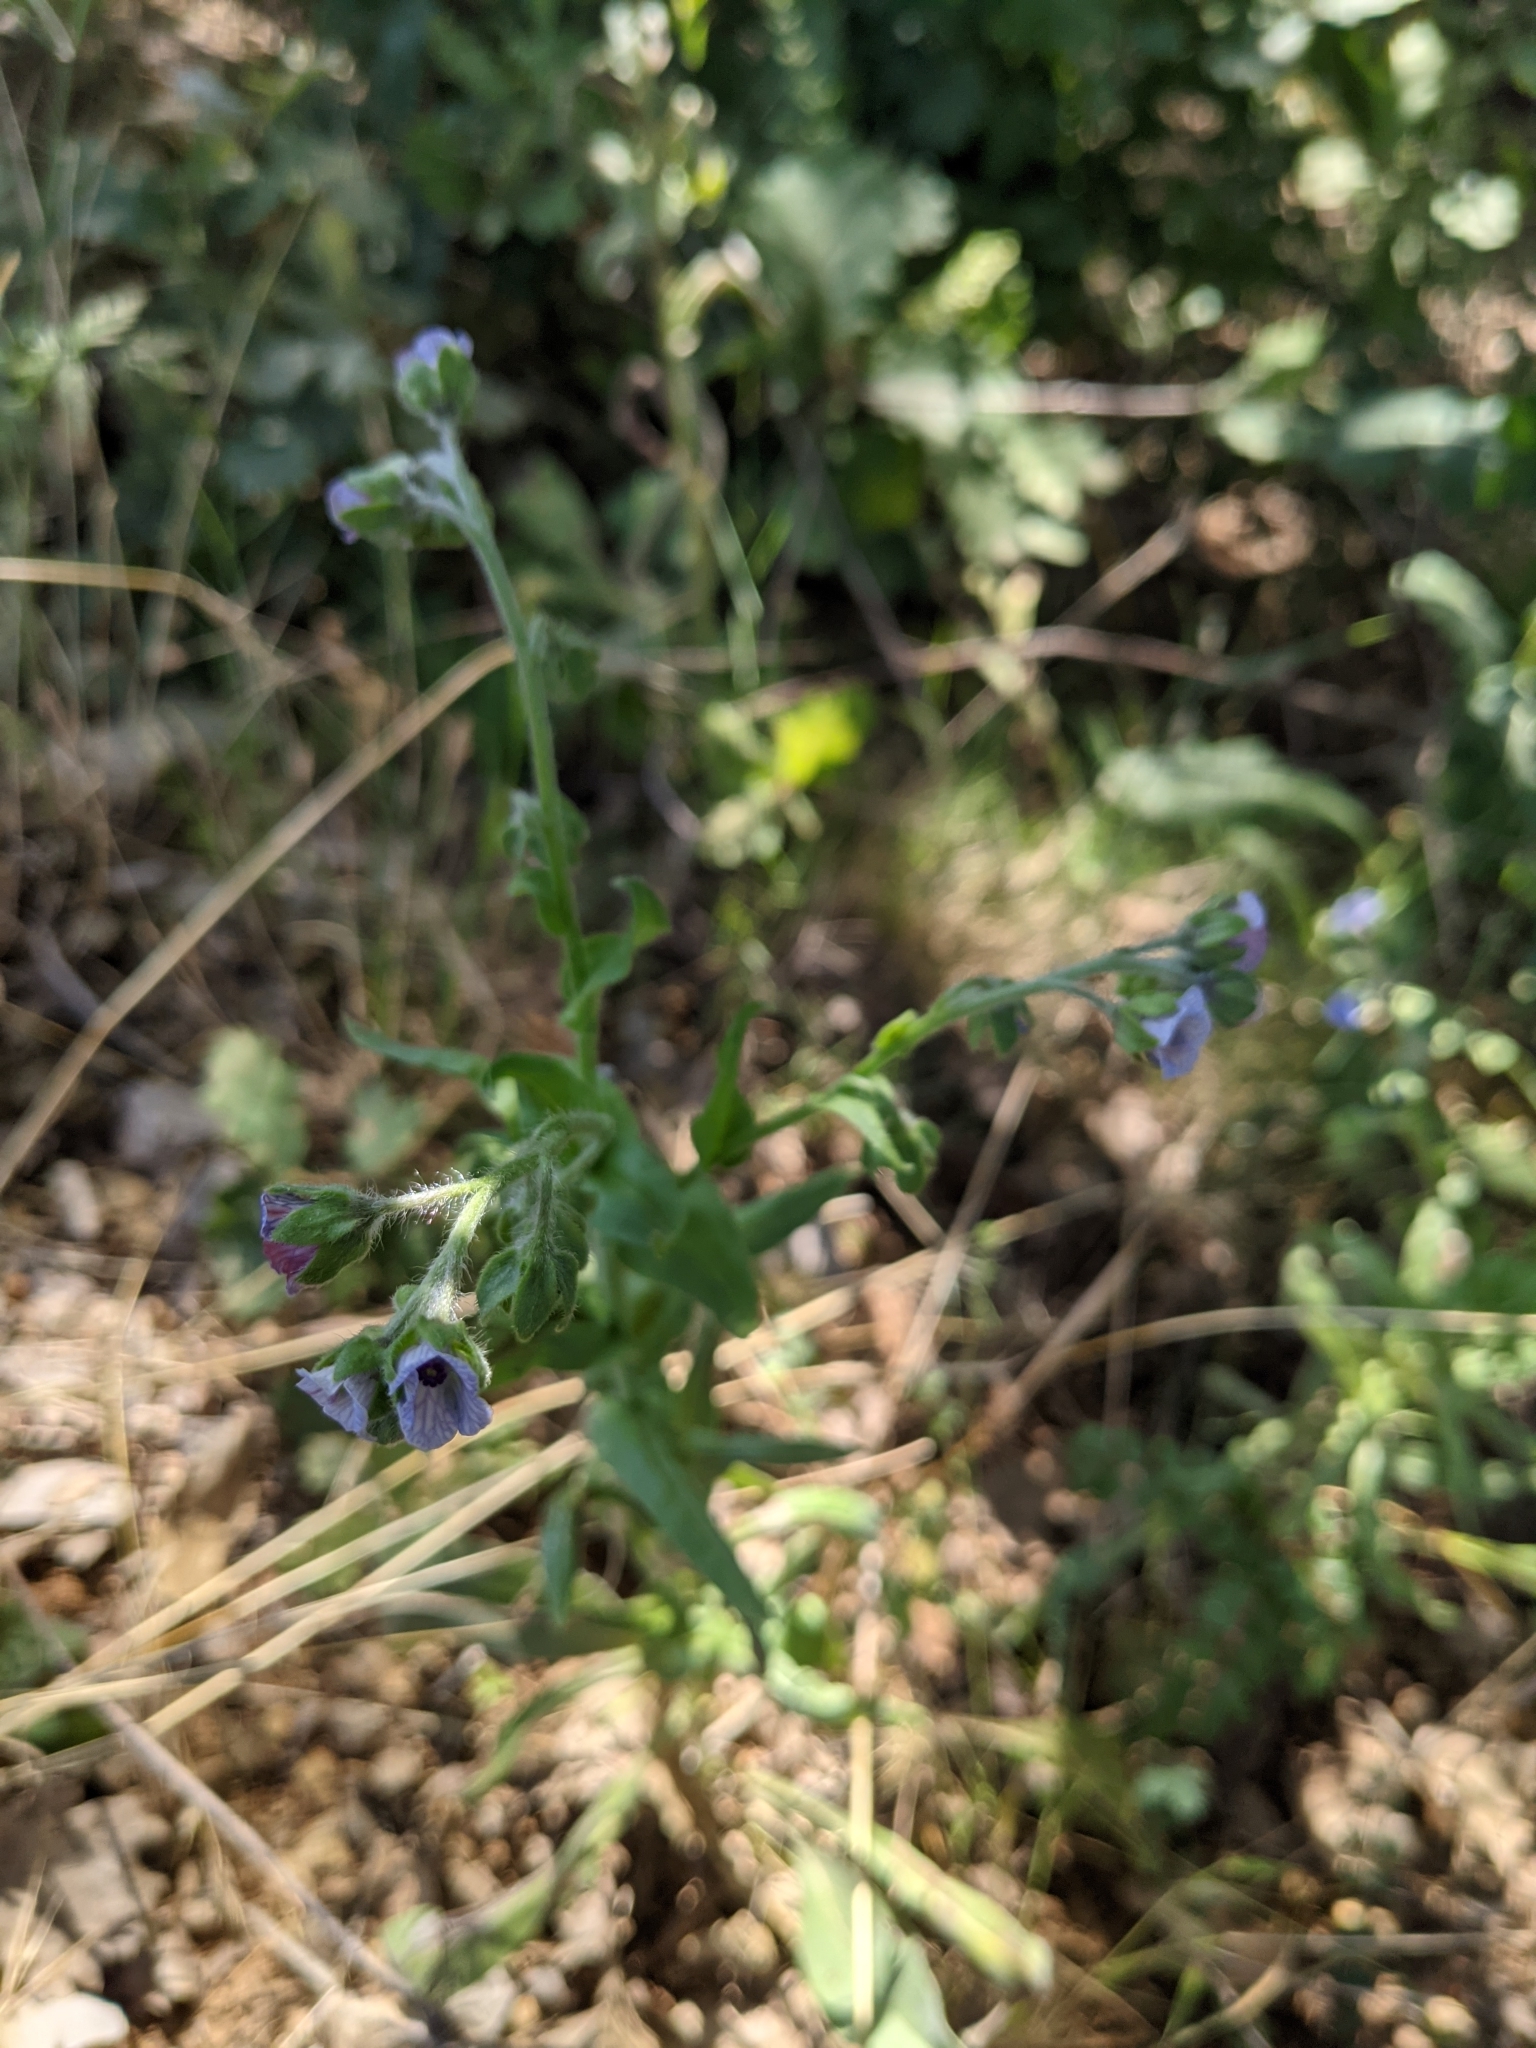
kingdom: Plantae
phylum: Tracheophyta
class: Magnoliopsida
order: Boraginales
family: Boraginaceae
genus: Cynoglossum
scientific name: Cynoglossum creticum
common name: Blue hound's tongue
